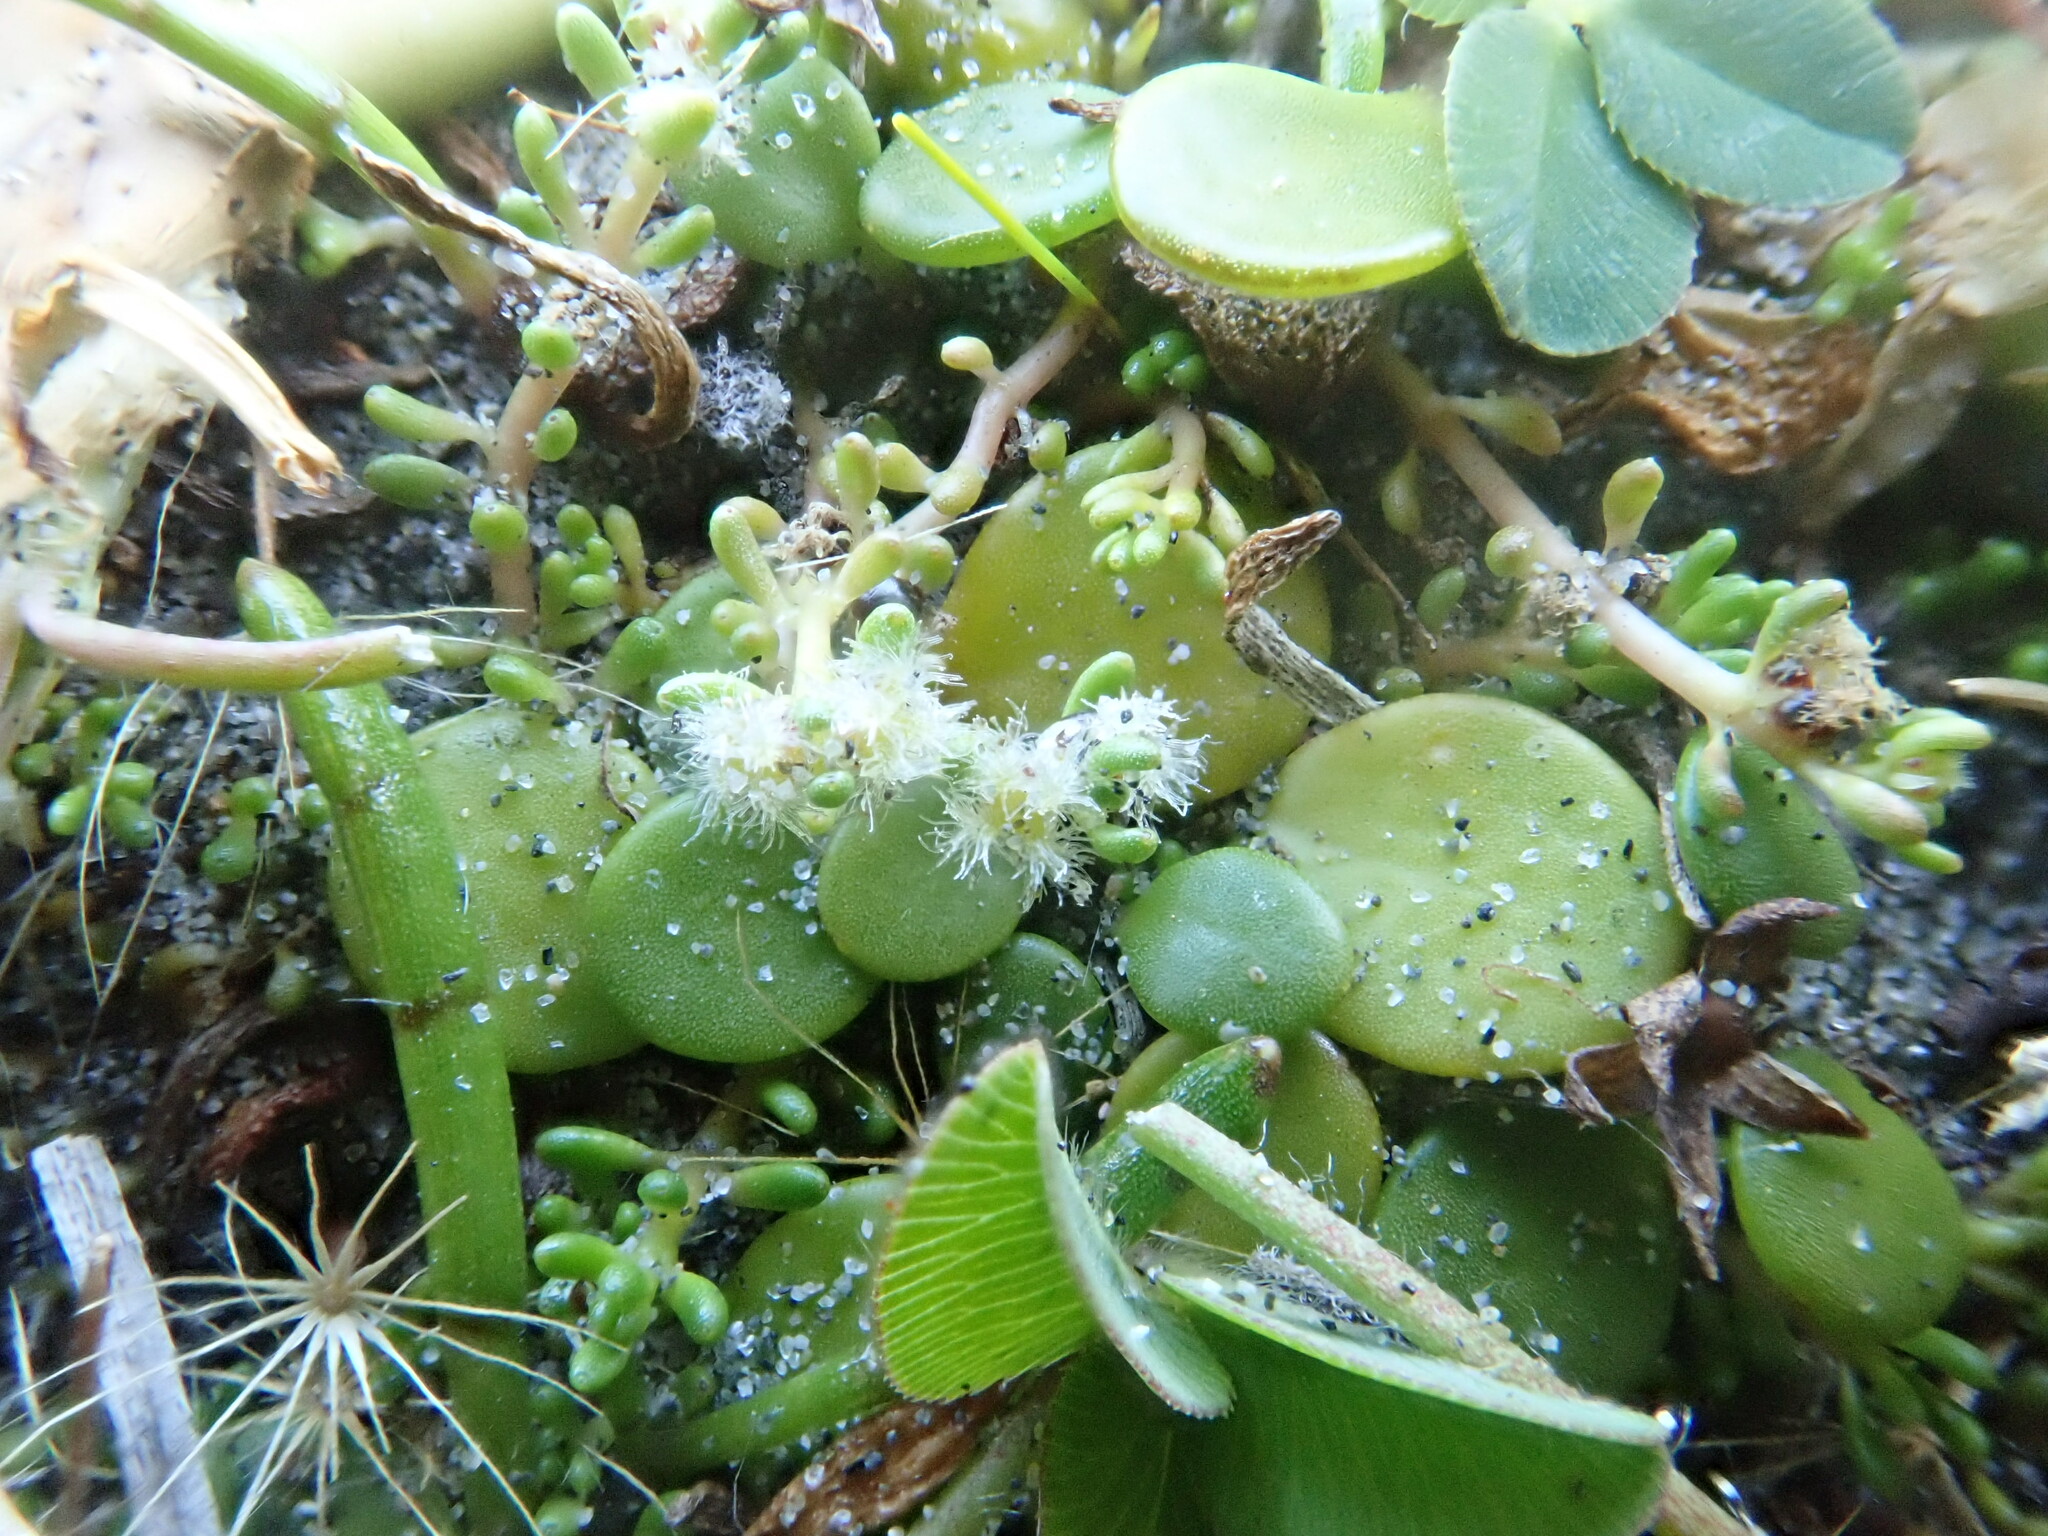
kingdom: Plantae
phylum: Tracheophyta
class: Magnoliopsida
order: Saxifragales
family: Haloragaceae
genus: Myriophyllum
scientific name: Myriophyllum votschii
